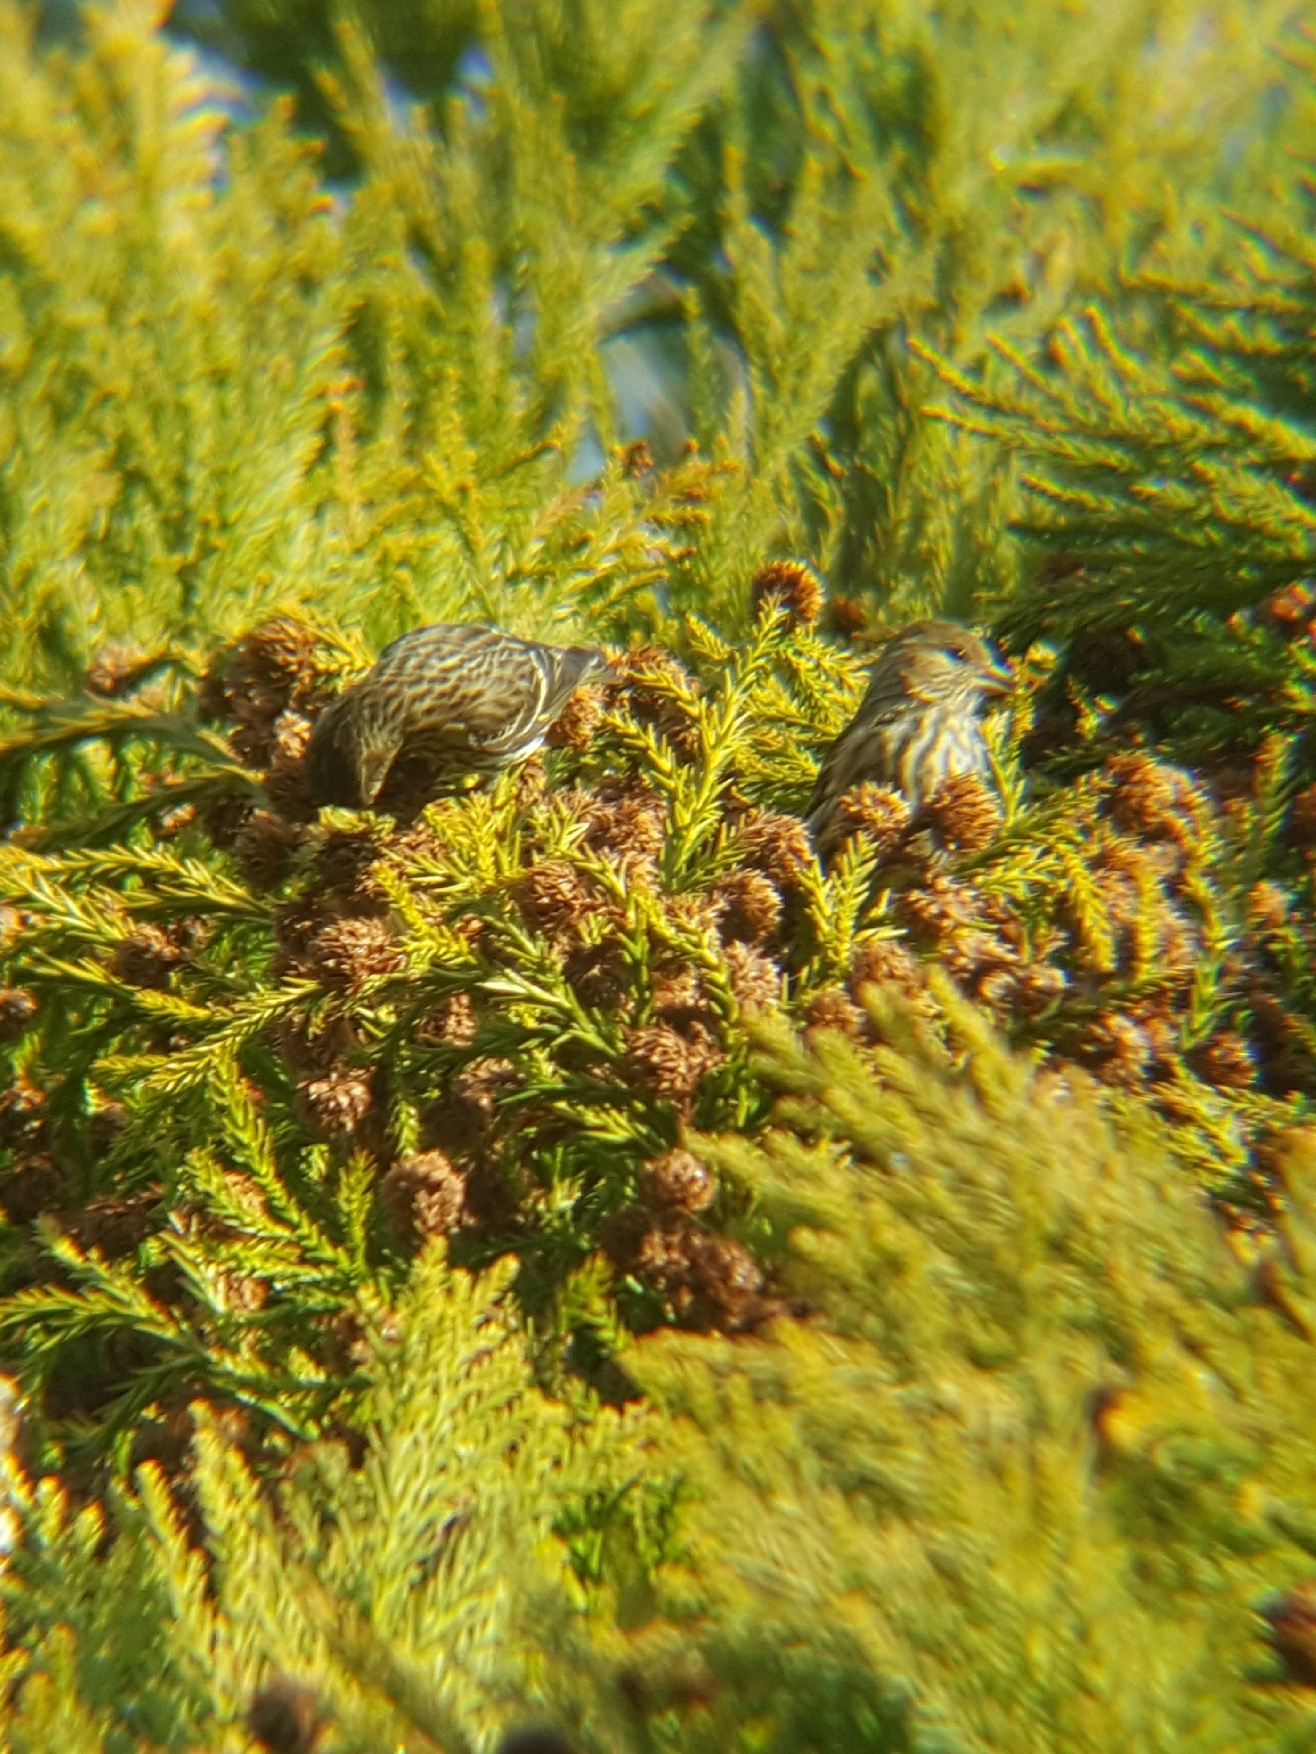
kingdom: Animalia
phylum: Chordata
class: Aves
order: Passeriformes
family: Fringillidae
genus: Spinus
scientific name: Spinus pinus
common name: Pine siskin
